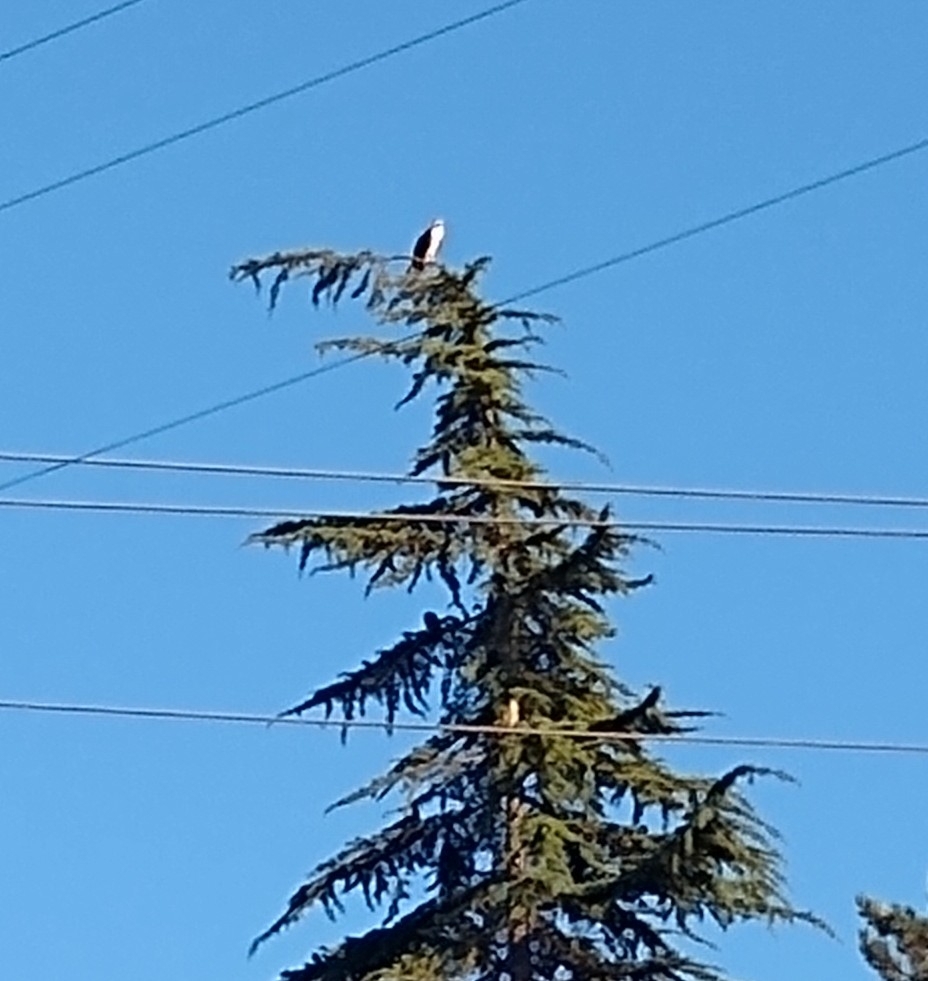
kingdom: Animalia
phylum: Chordata
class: Aves
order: Accipitriformes
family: Pandionidae
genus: Pandion
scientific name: Pandion haliaetus
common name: Osprey
